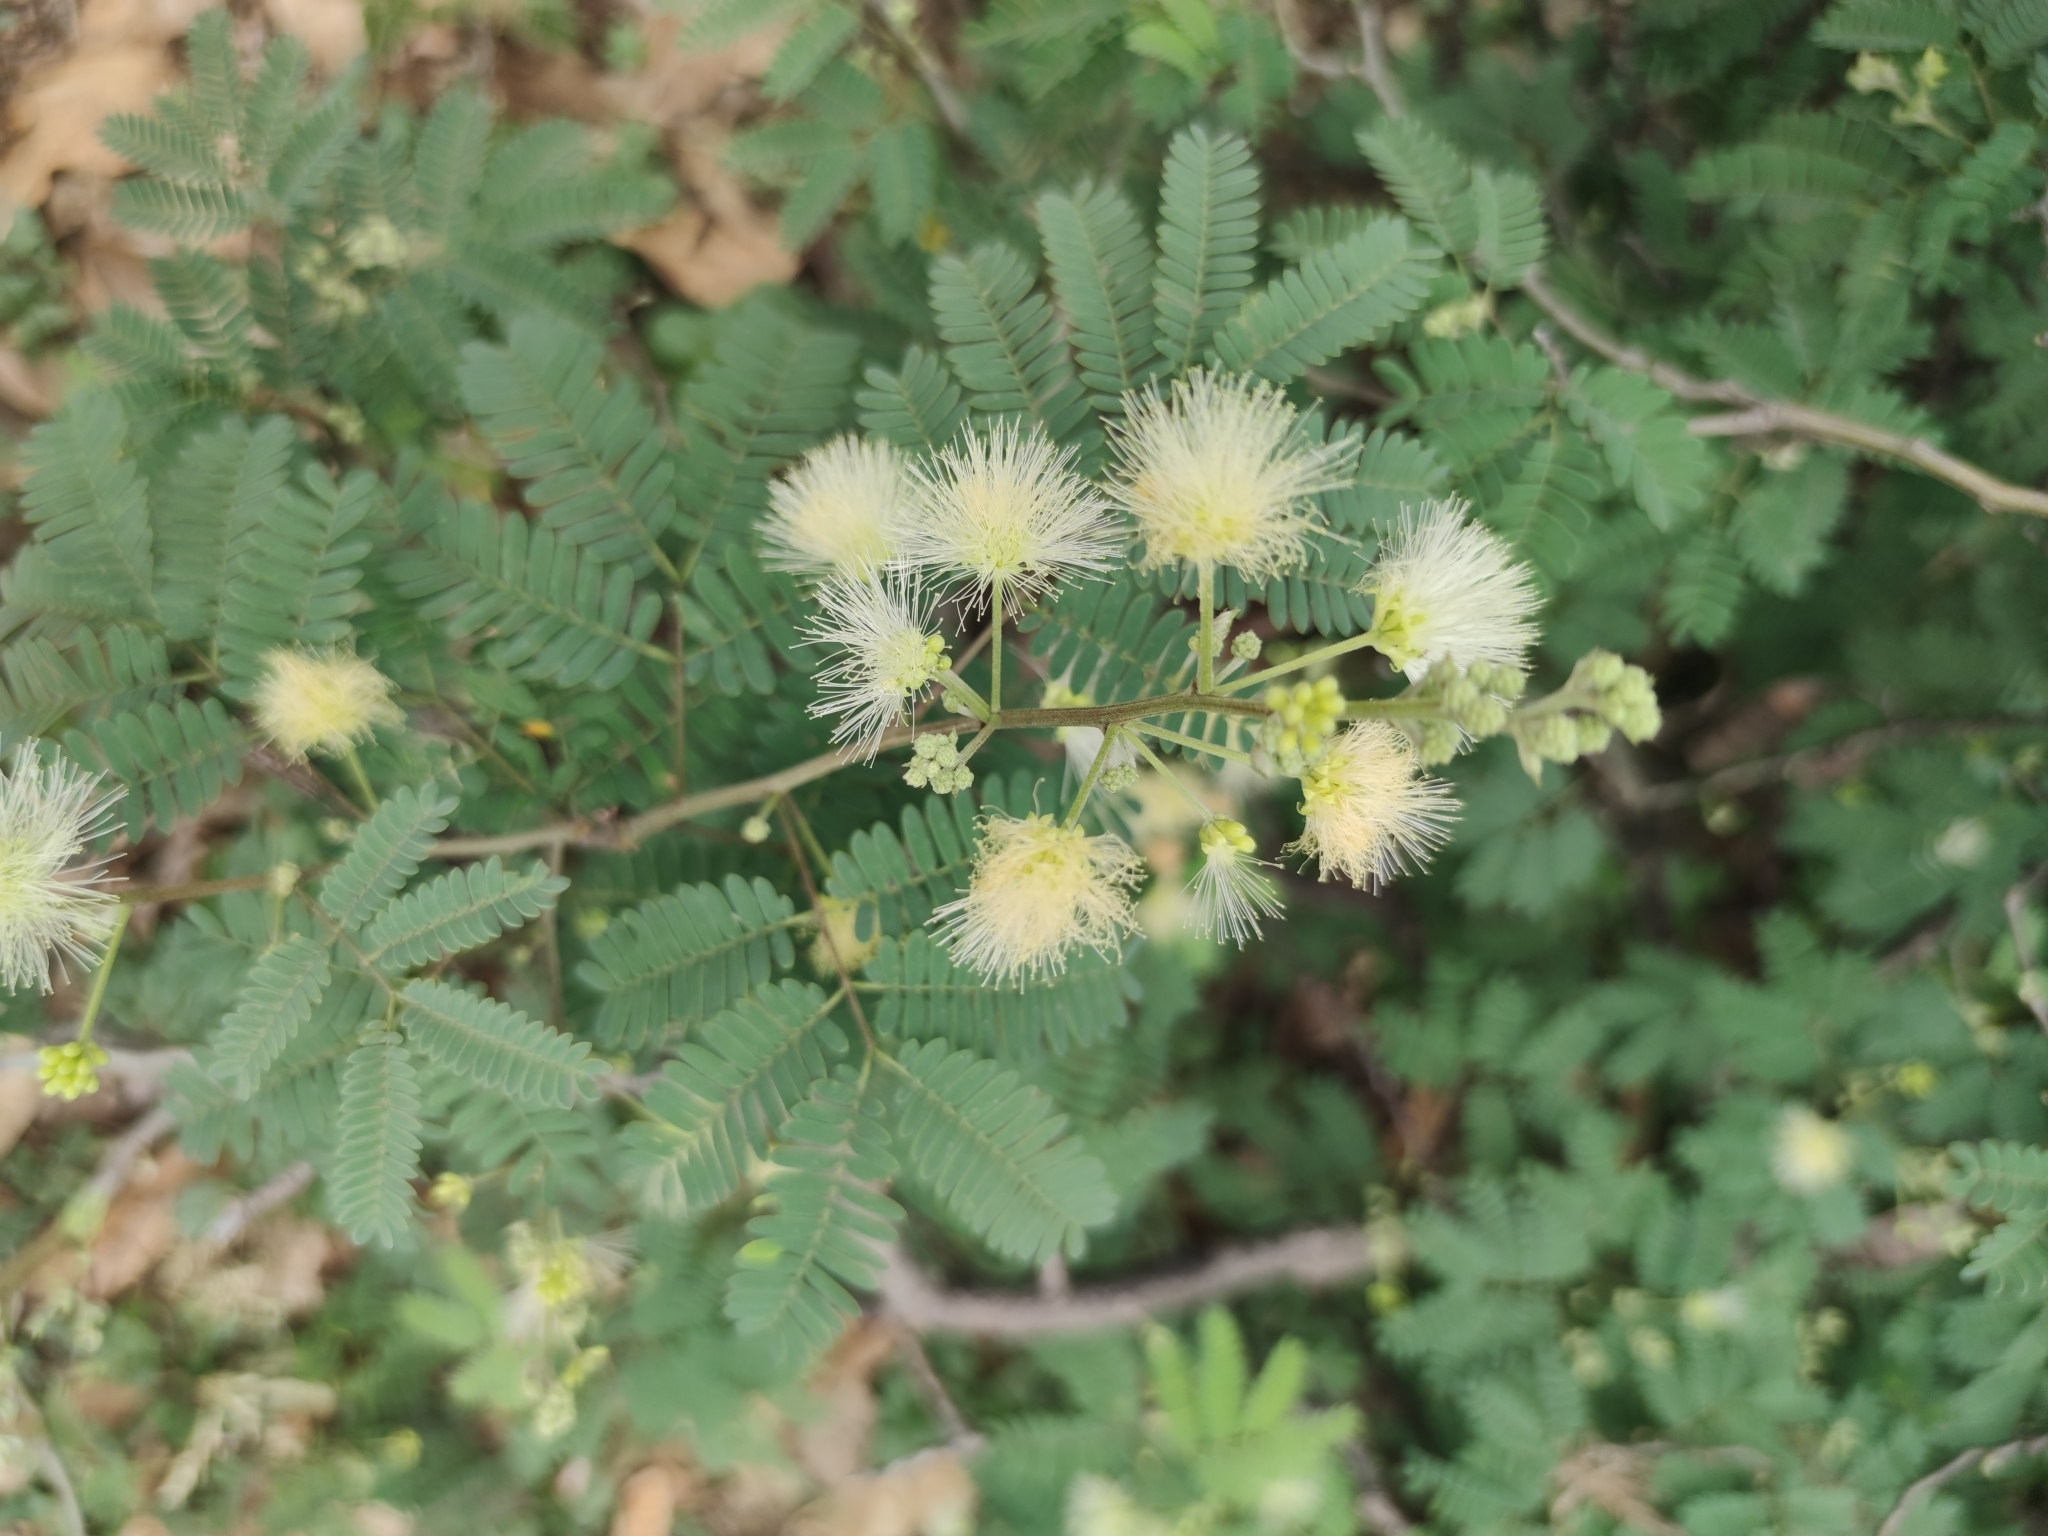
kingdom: Plantae
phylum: Tracheophyta
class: Magnoliopsida
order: Fabales
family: Fabaceae
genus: Havardia
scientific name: Havardia pallens
